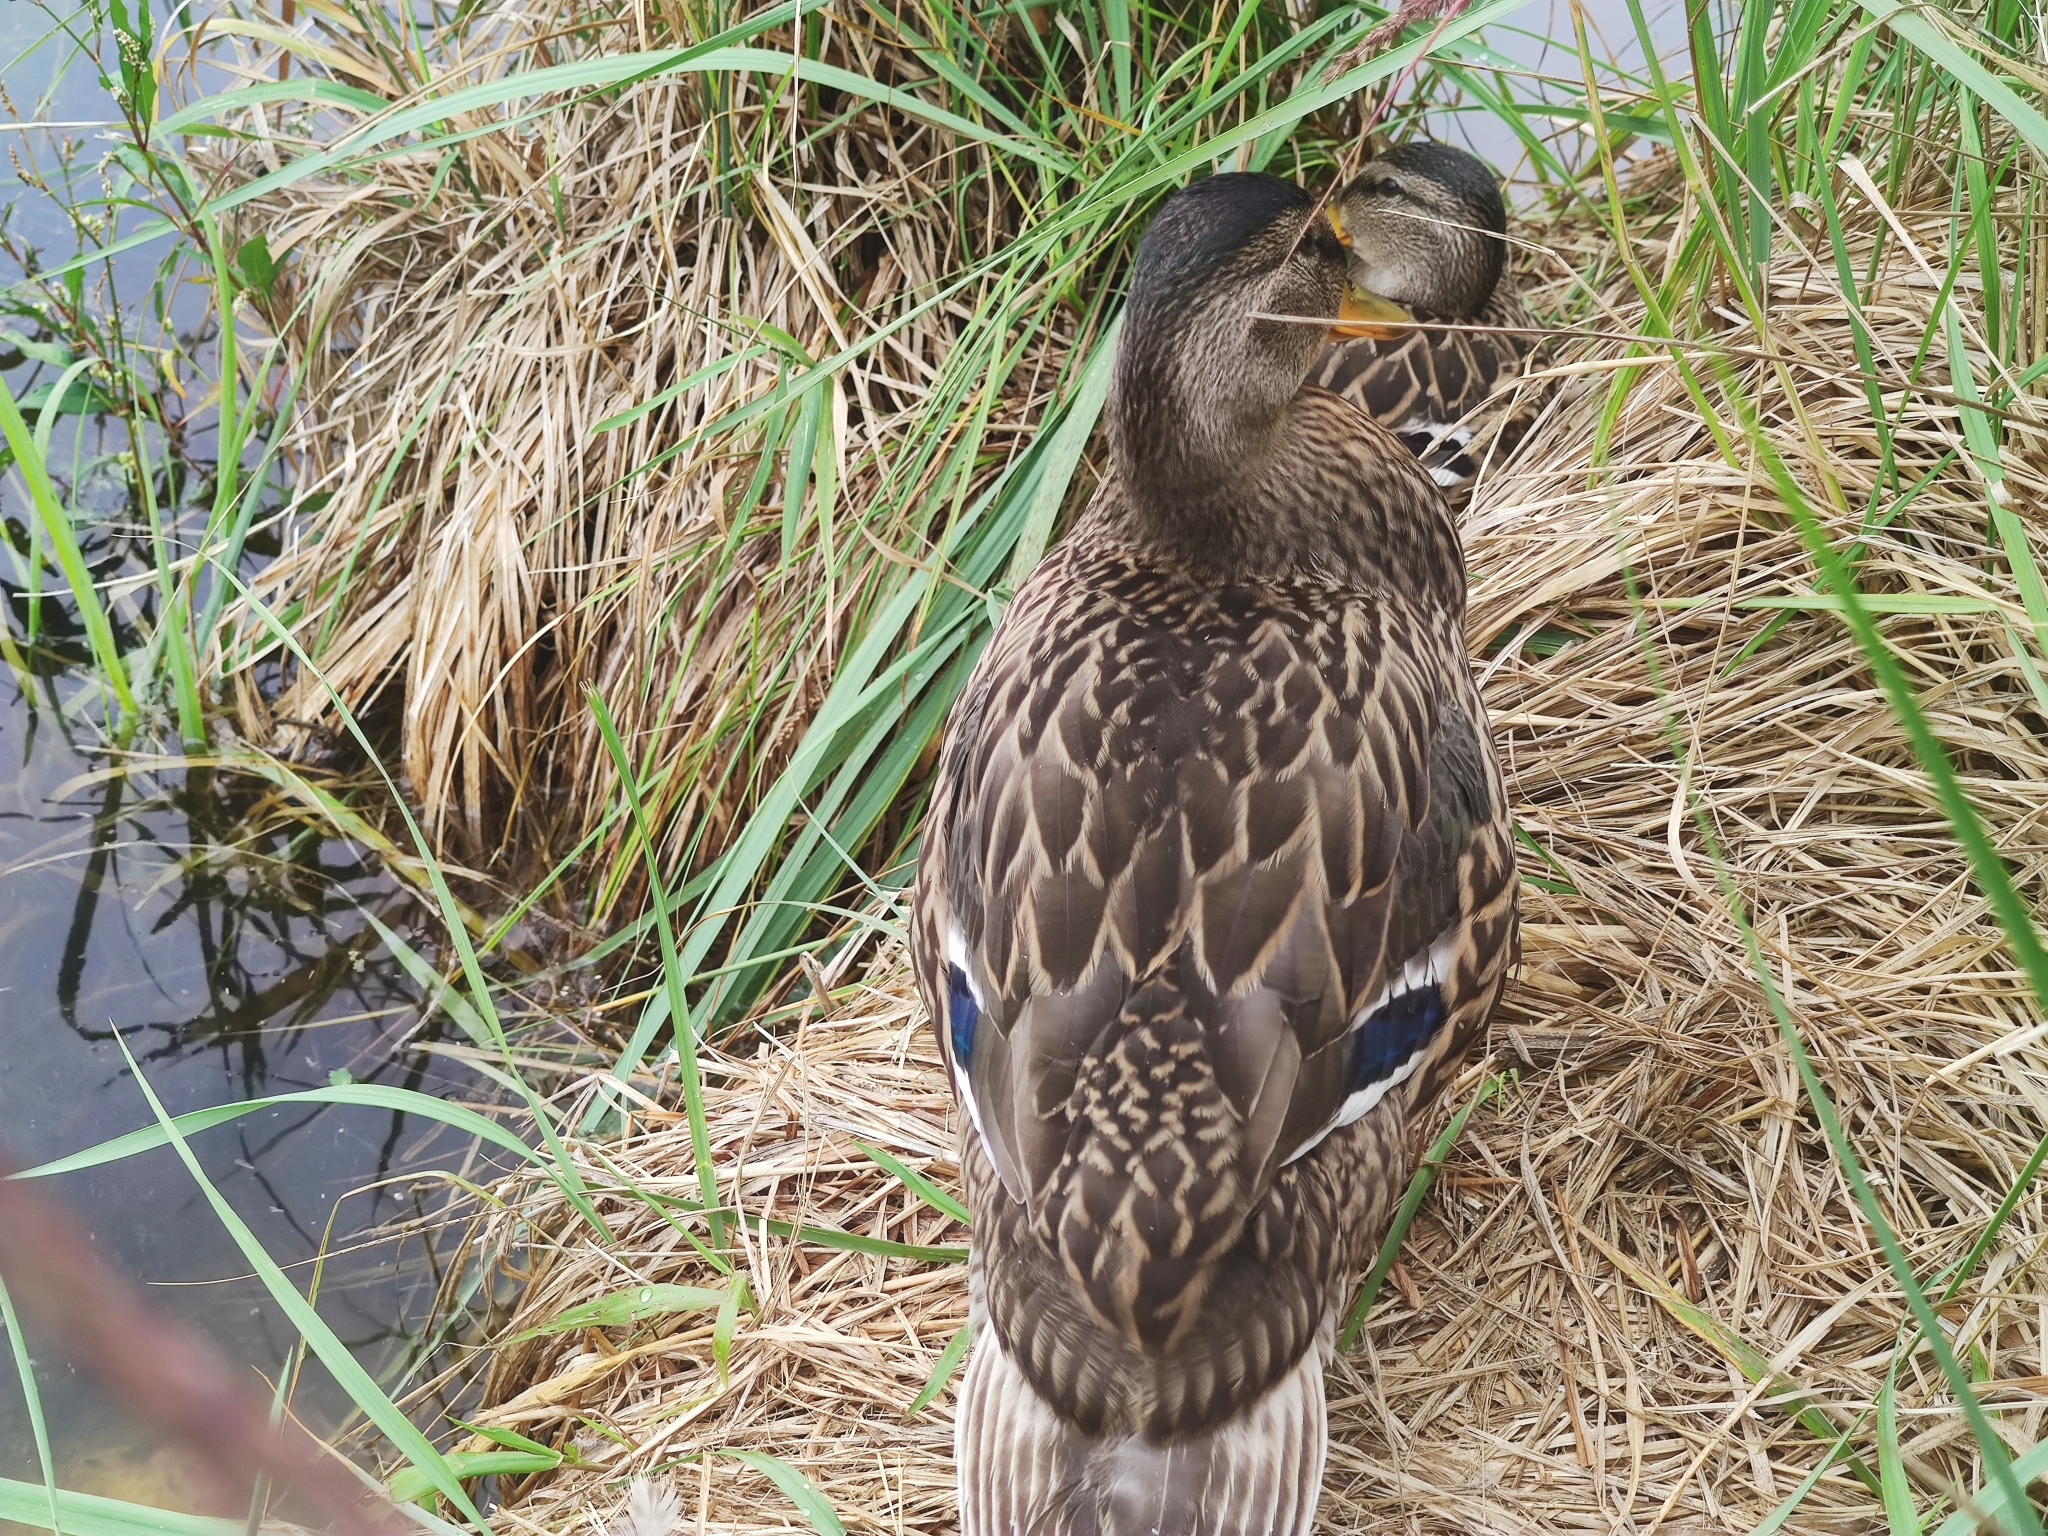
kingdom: Animalia
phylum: Chordata
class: Aves
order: Anseriformes
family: Anatidae
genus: Anas
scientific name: Anas platyrhynchos
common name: Mallard
